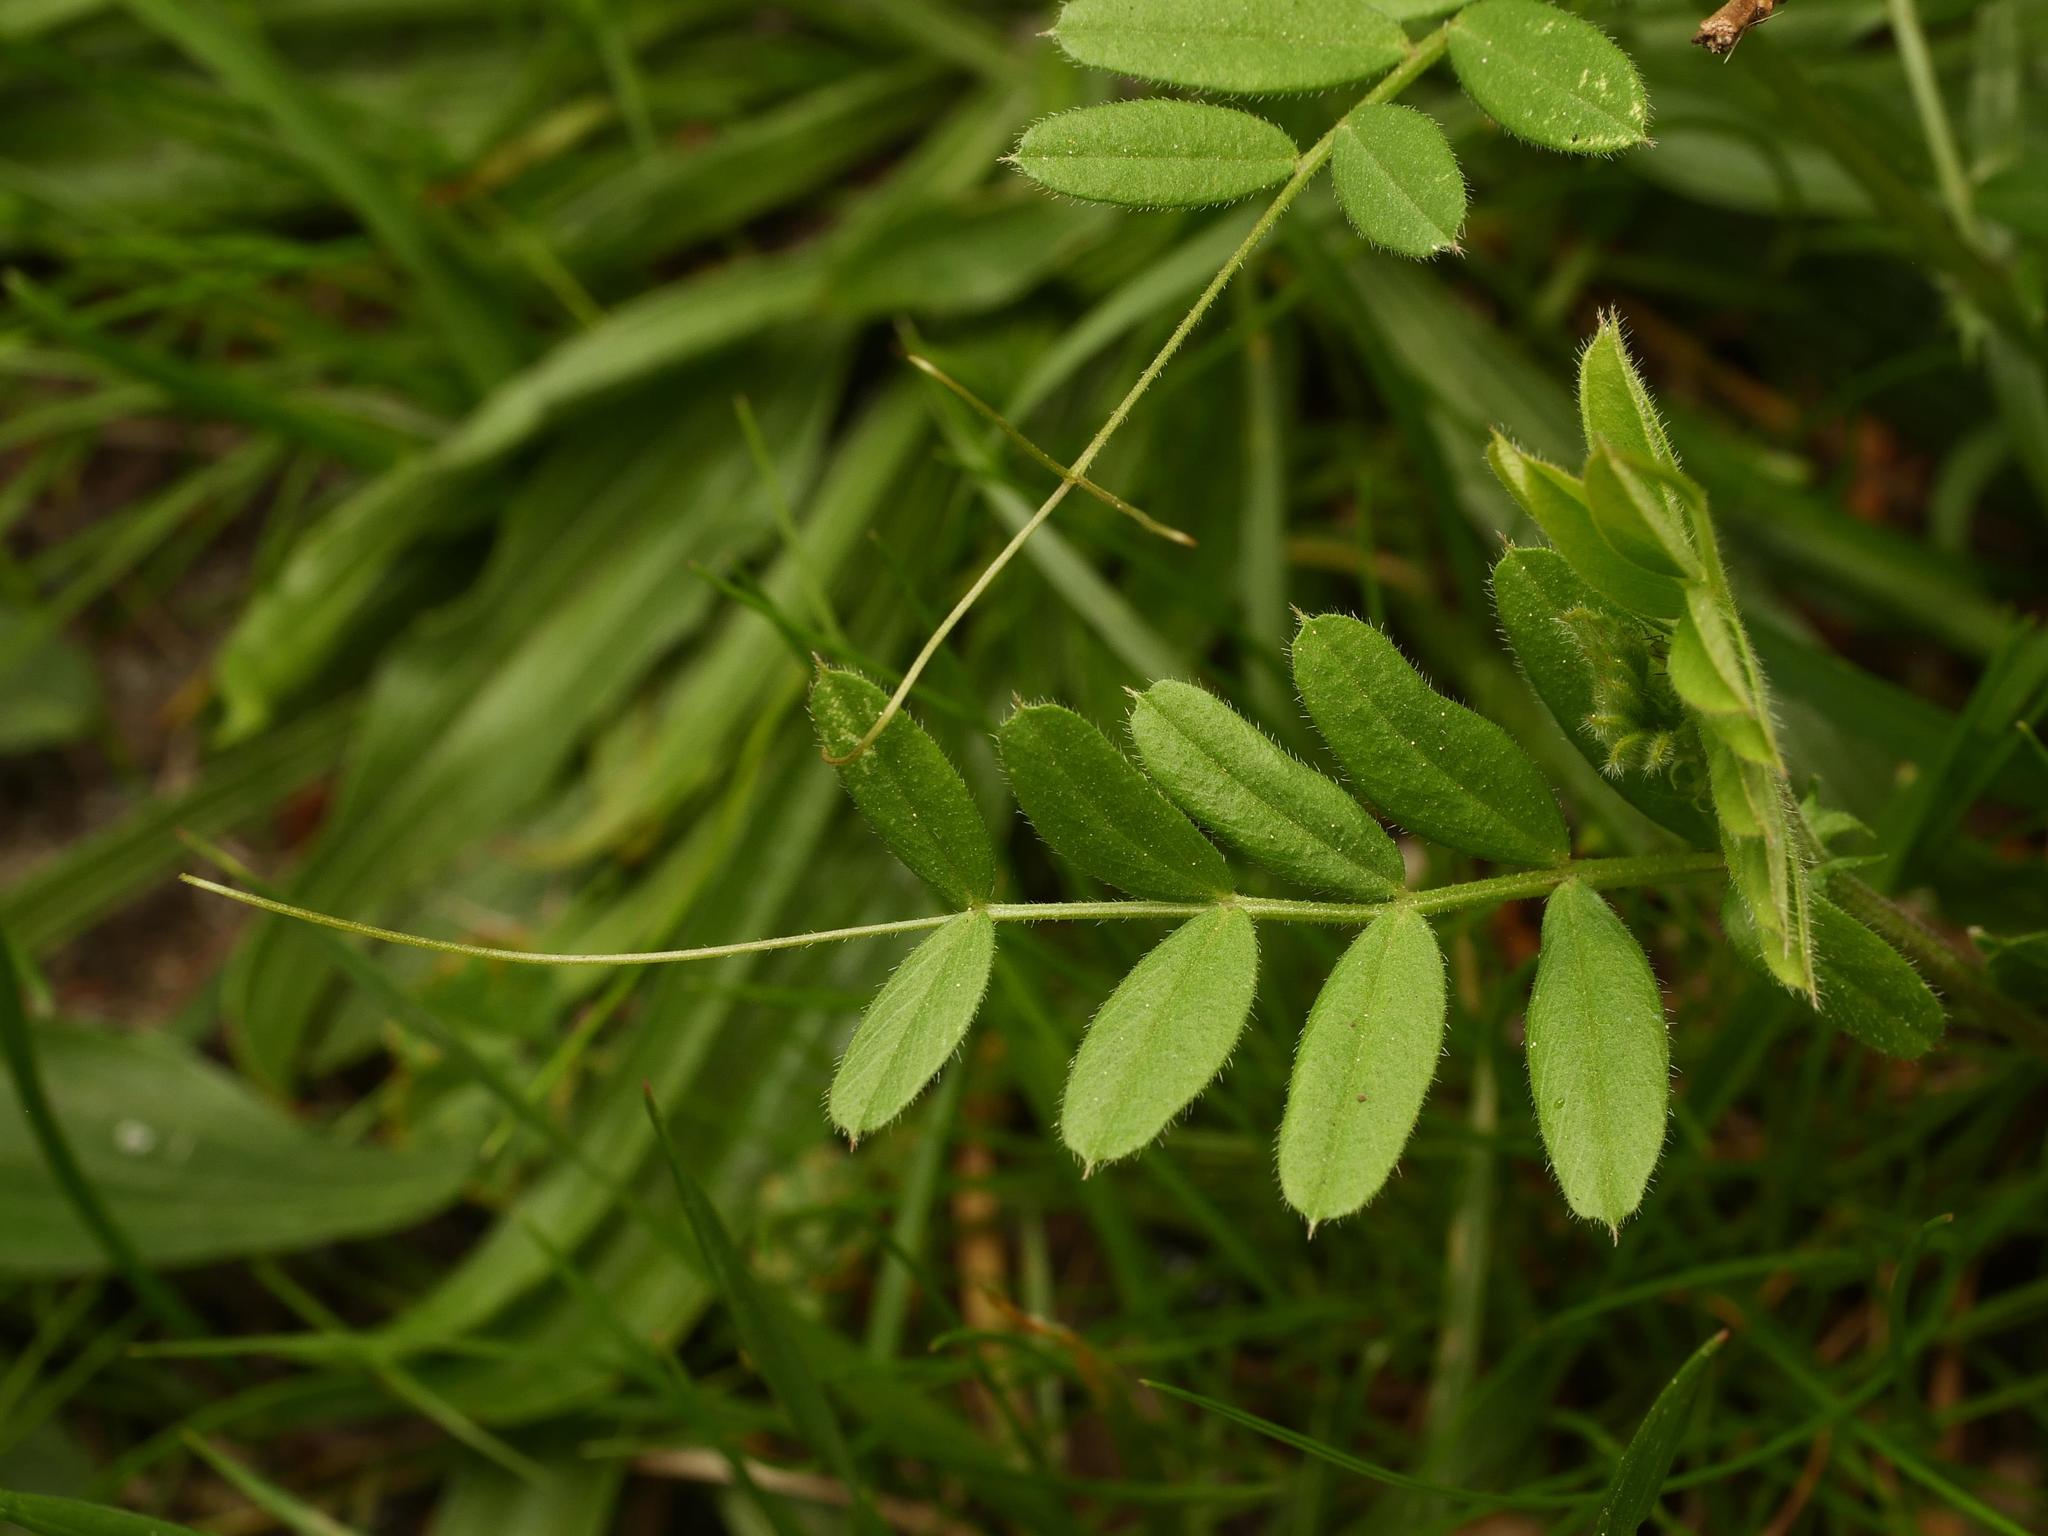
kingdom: Plantae
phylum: Tracheophyta
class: Magnoliopsida
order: Fabales
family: Fabaceae
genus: Vicia
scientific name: Vicia sativa
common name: Garden vetch
